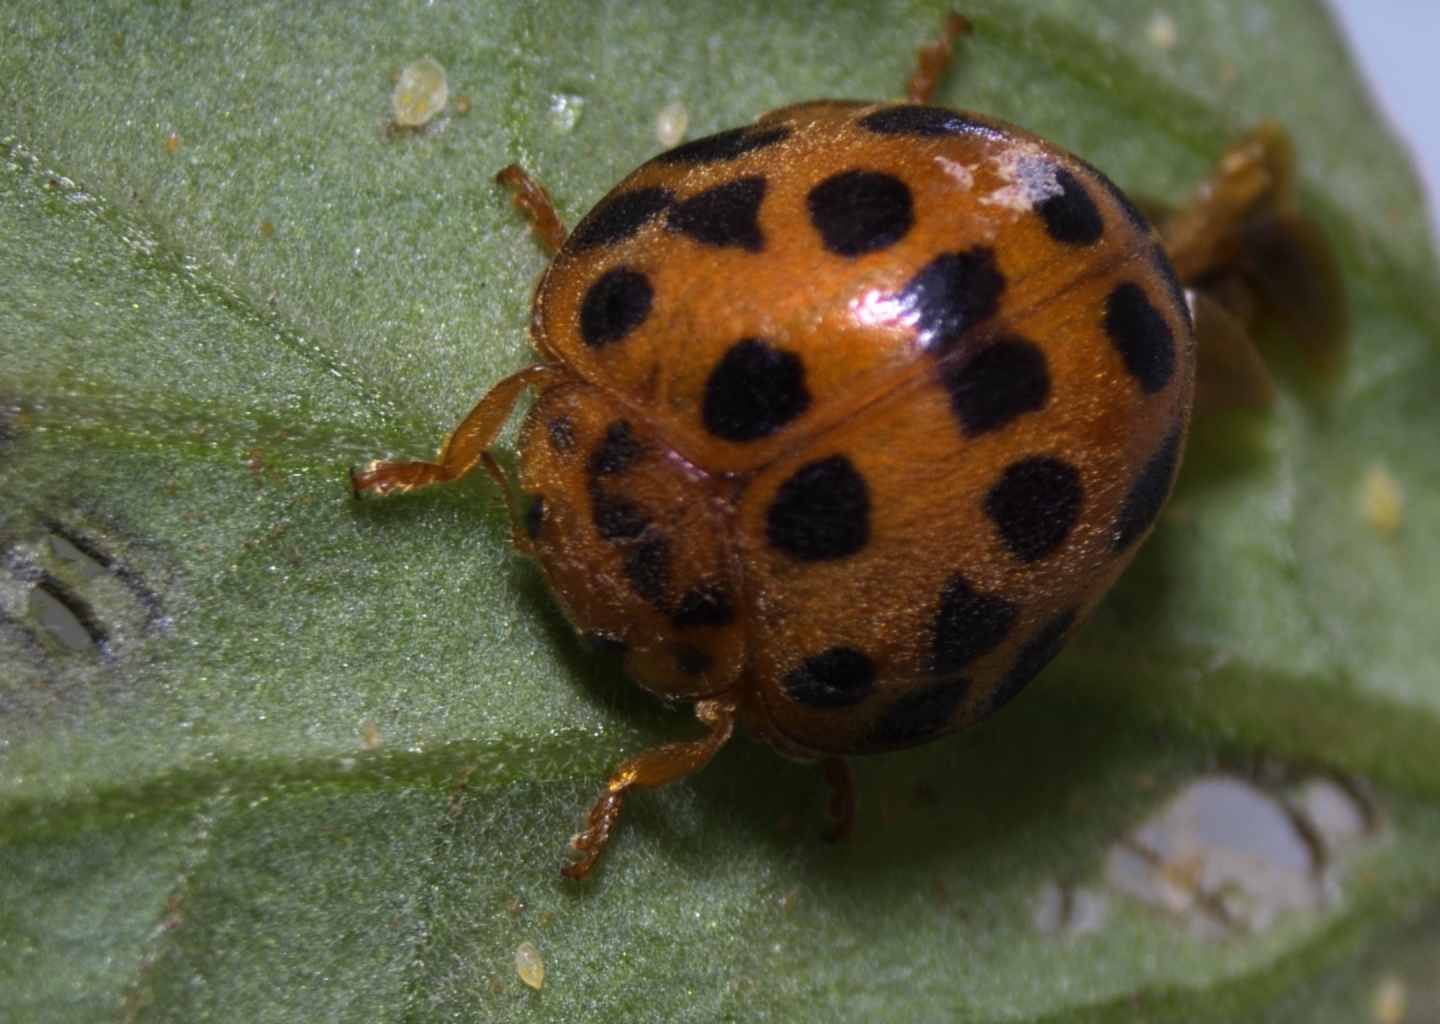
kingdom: Animalia
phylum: Arthropoda
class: Insecta
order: Coleoptera
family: Coccinellidae
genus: Henosepilachna
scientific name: Henosepilachna vigintioctopunctata
